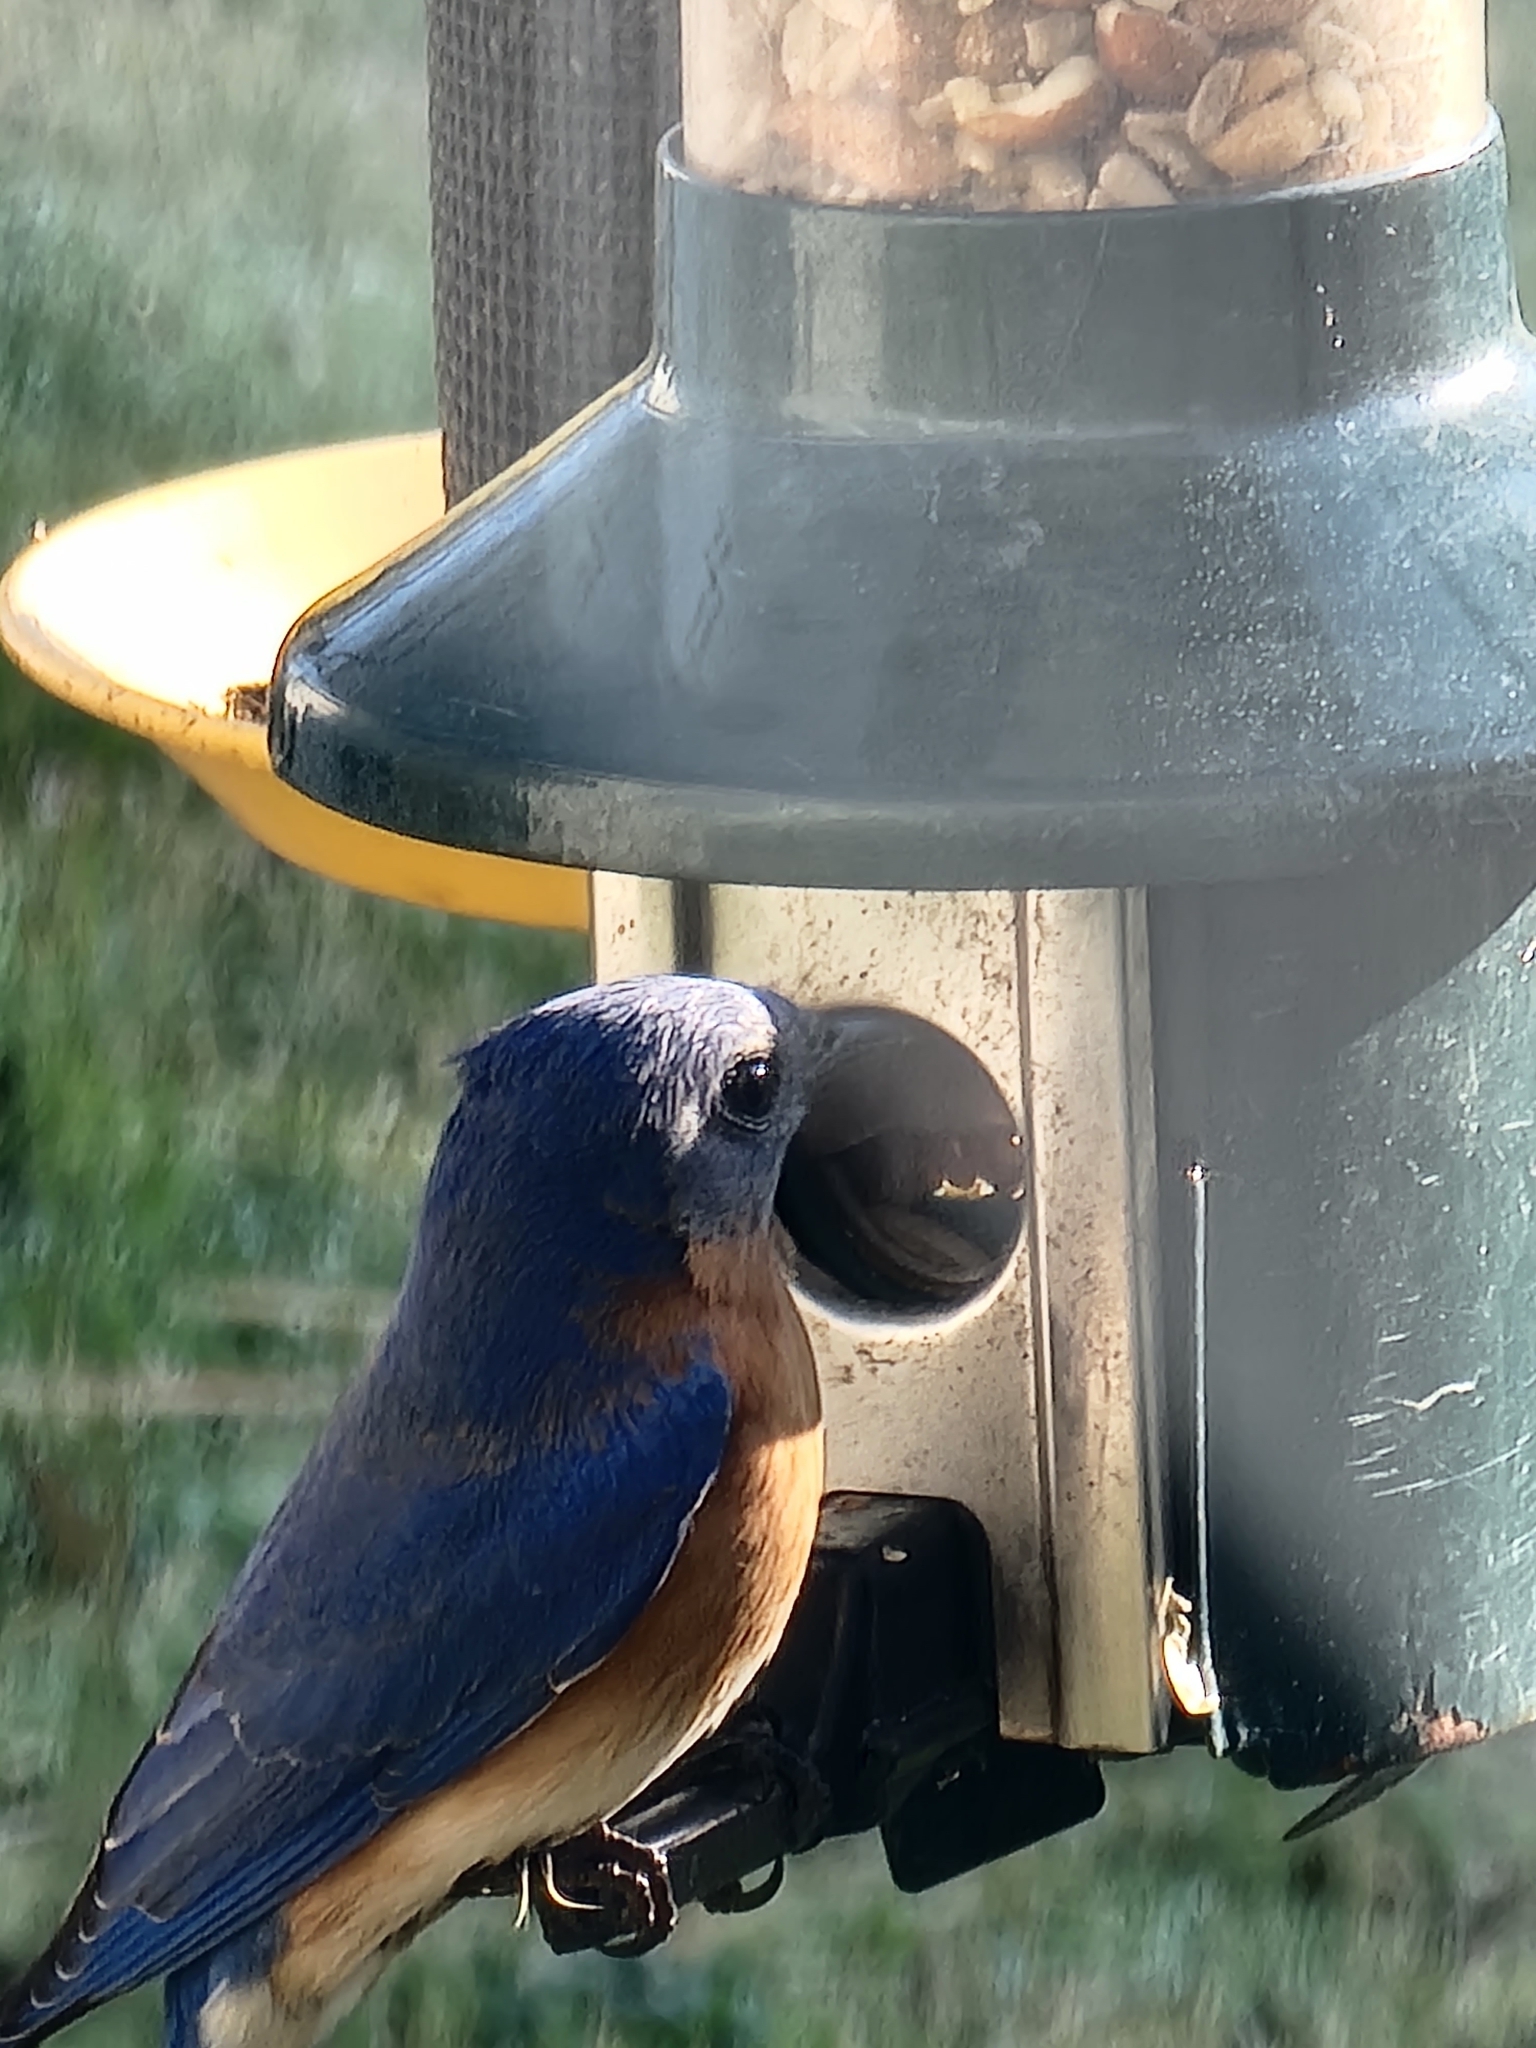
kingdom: Animalia
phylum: Chordata
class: Aves
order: Passeriformes
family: Turdidae
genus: Sialia
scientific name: Sialia sialis
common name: Eastern bluebird
